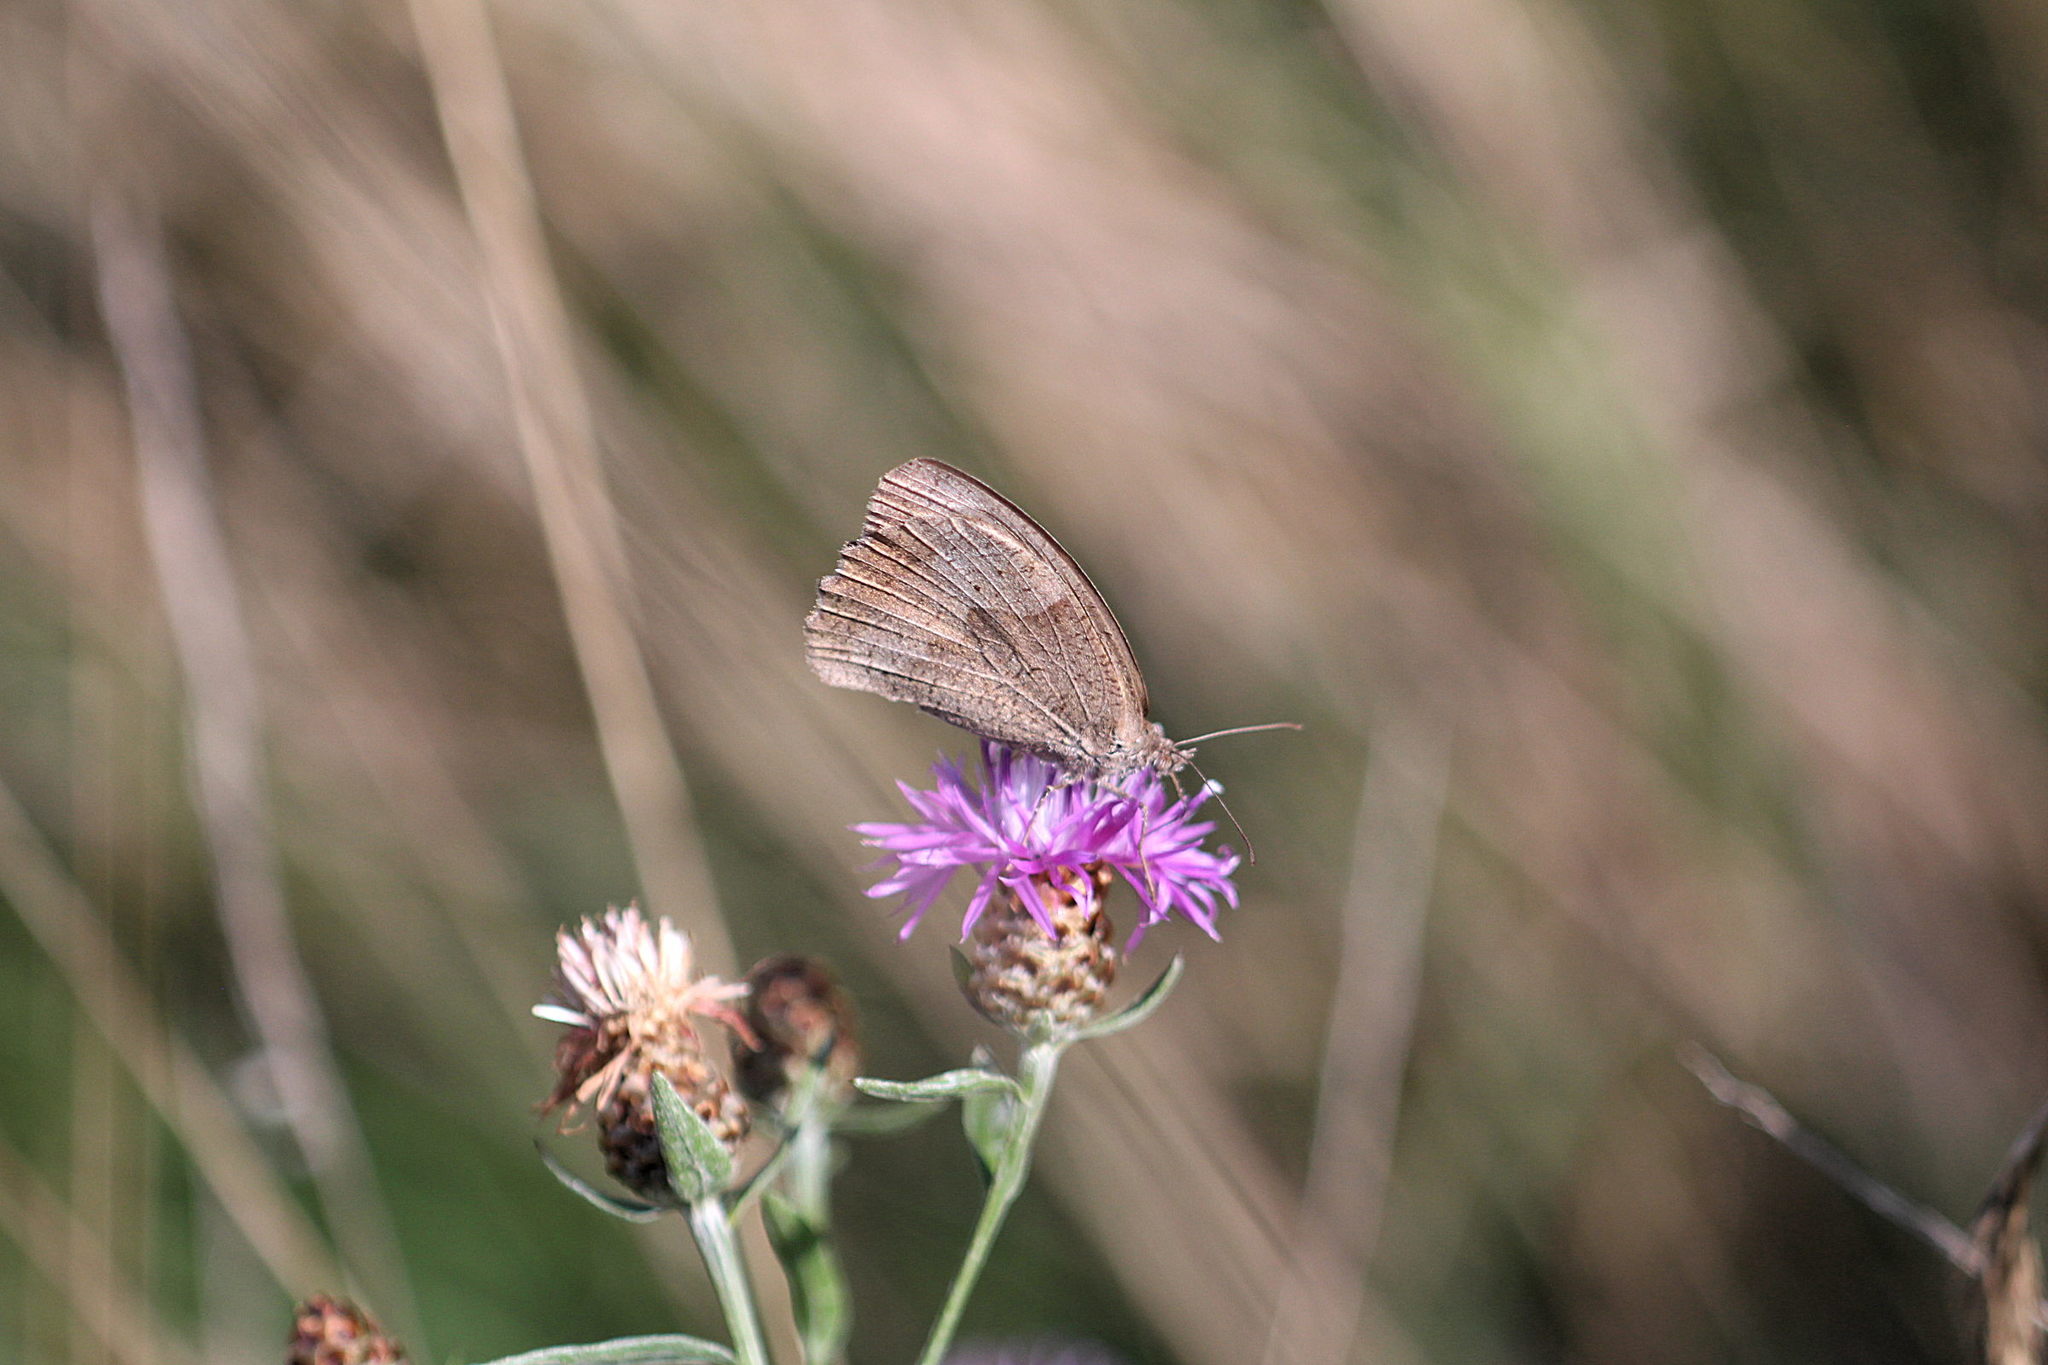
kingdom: Animalia
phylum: Arthropoda
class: Insecta
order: Lepidoptera
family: Nymphalidae
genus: Maniola
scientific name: Maniola jurtina
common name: Meadow brown
